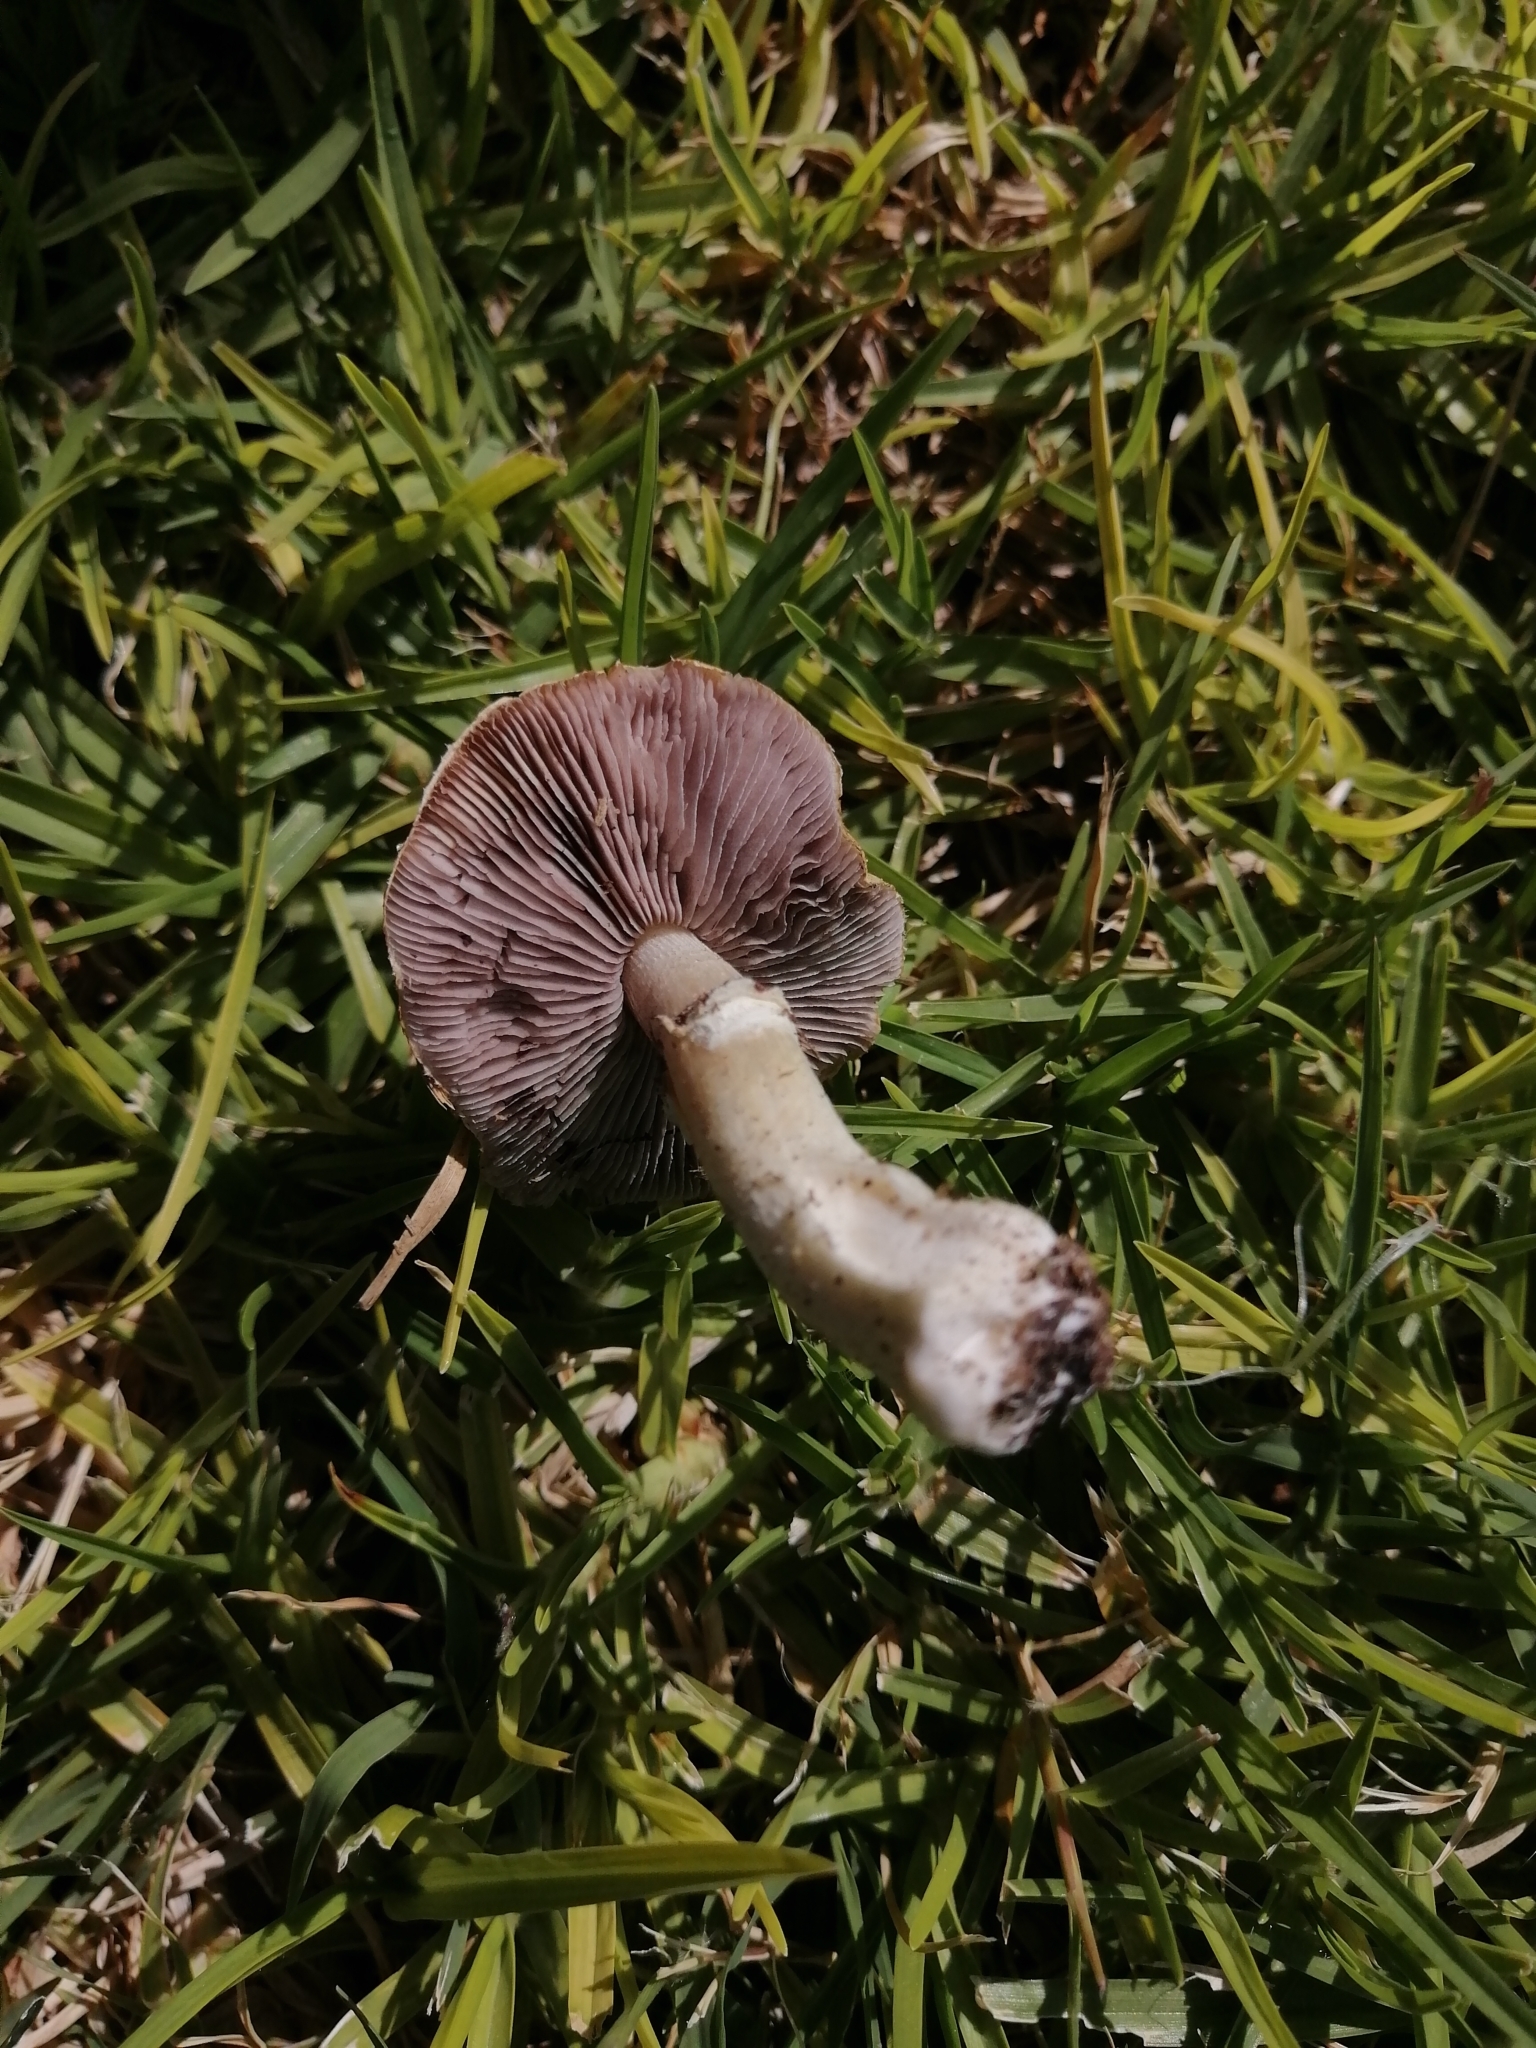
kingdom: Fungi
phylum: Basidiomycota
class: Agaricomycetes
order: Agaricales
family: Hymenogastraceae
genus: Psilocybe
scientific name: Psilocybe coronilla
